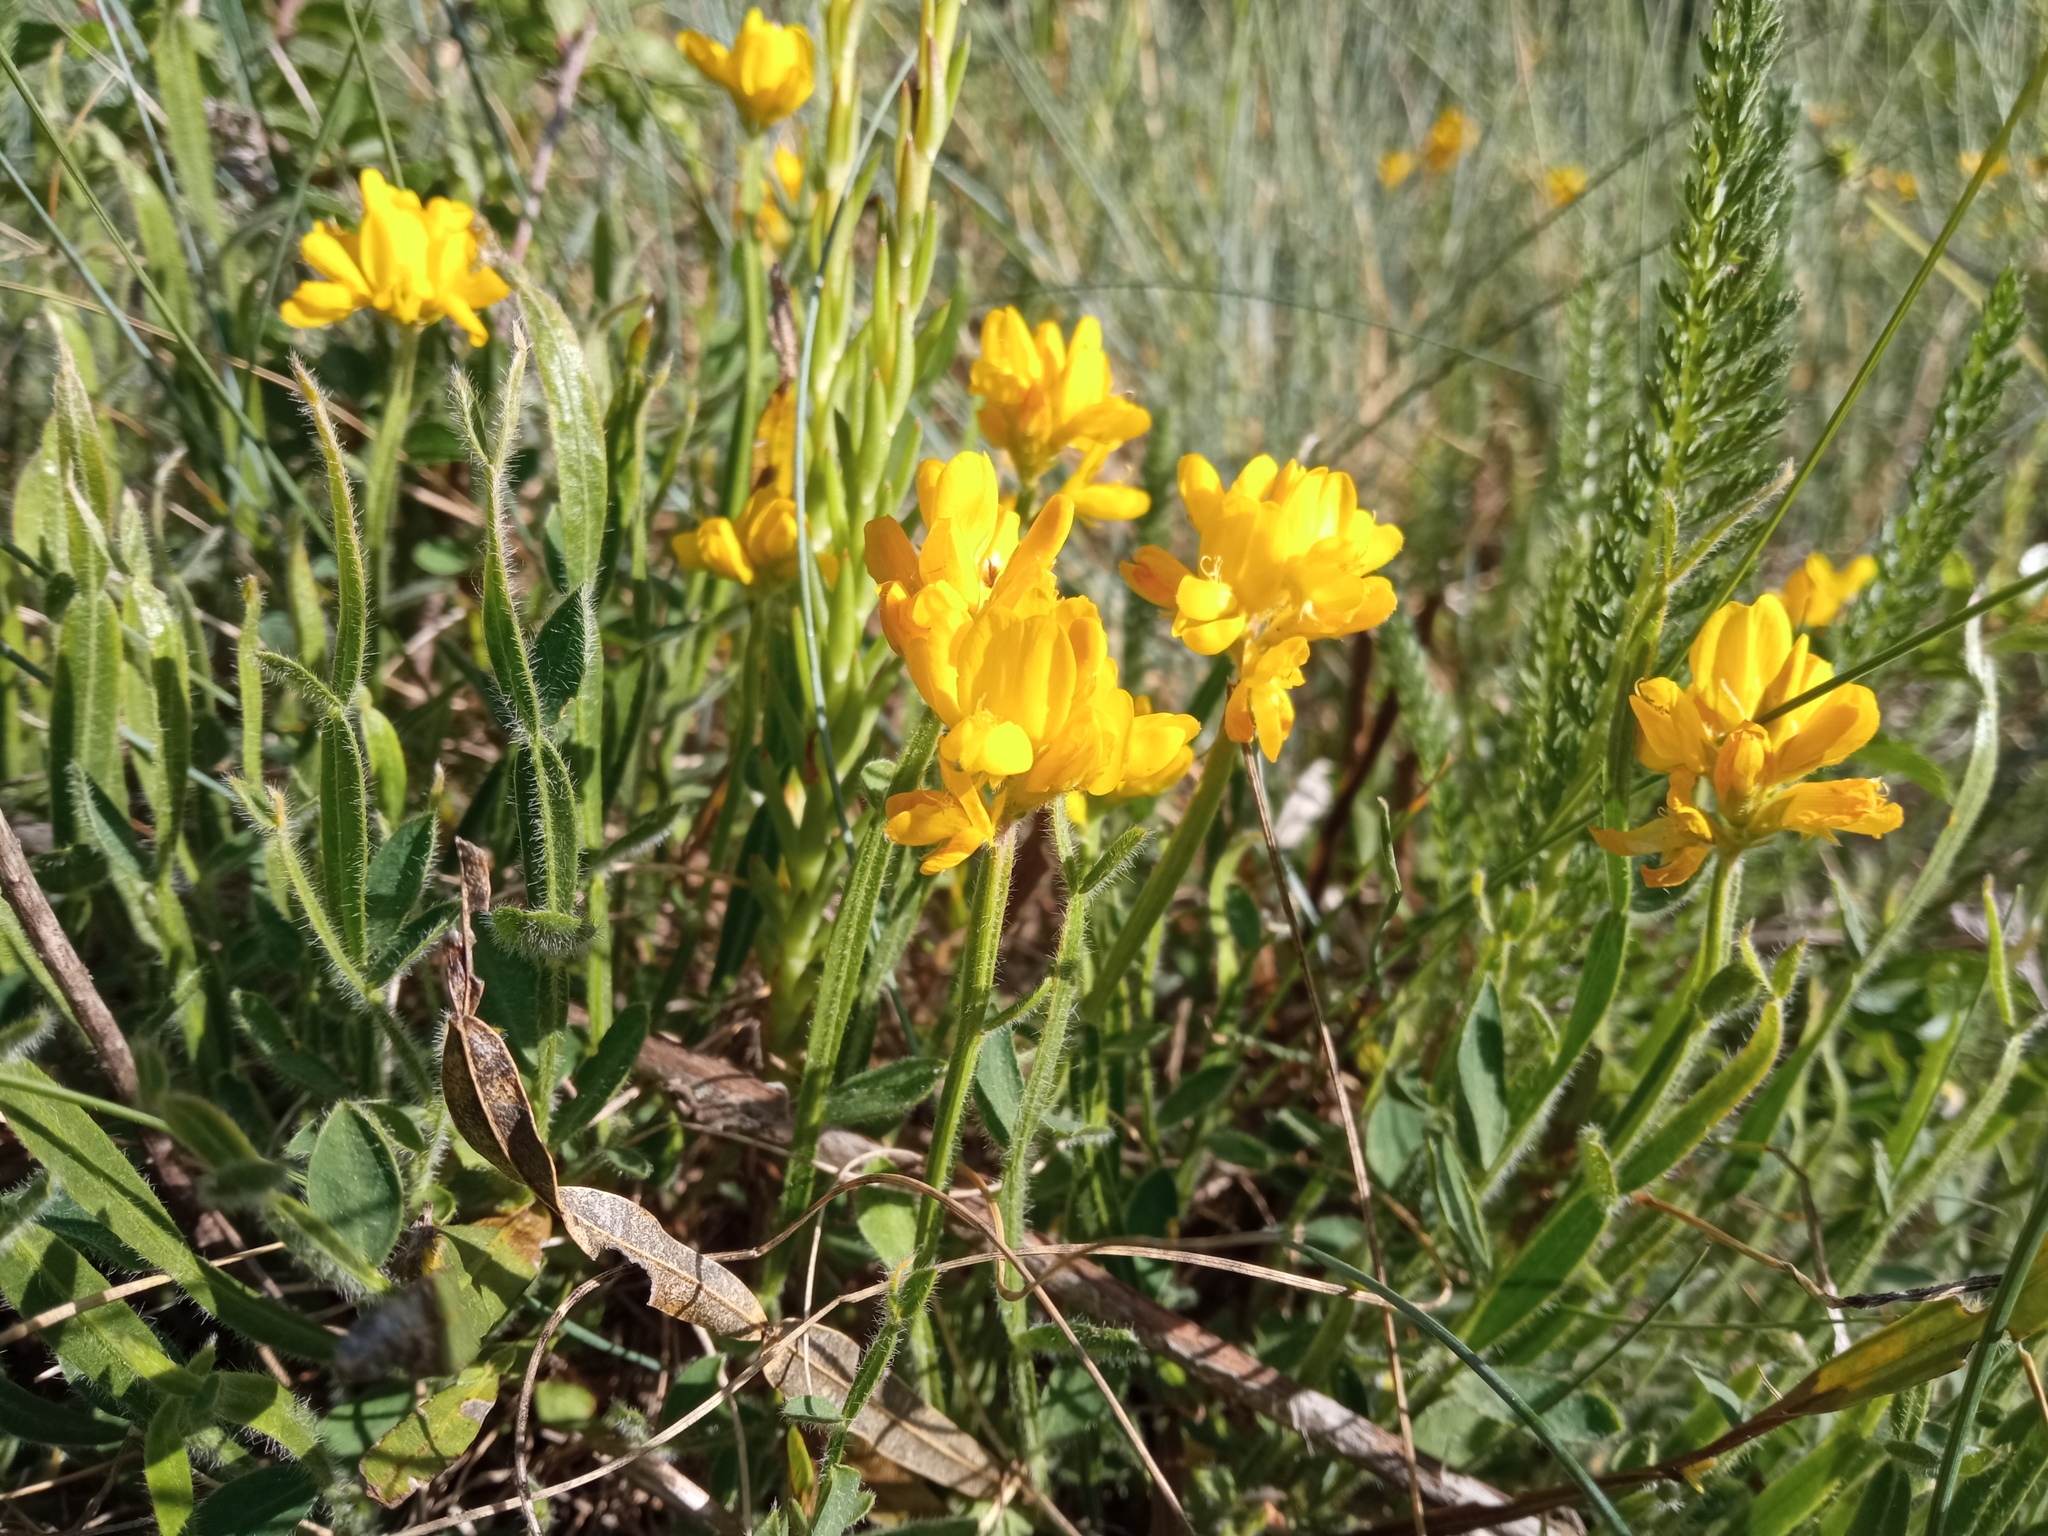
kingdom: Plantae
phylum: Tracheophyta
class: Magnoliopsida
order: Fabales
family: Fabaceae
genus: Genista
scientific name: Genista sagittalis
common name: Winged greenweed
